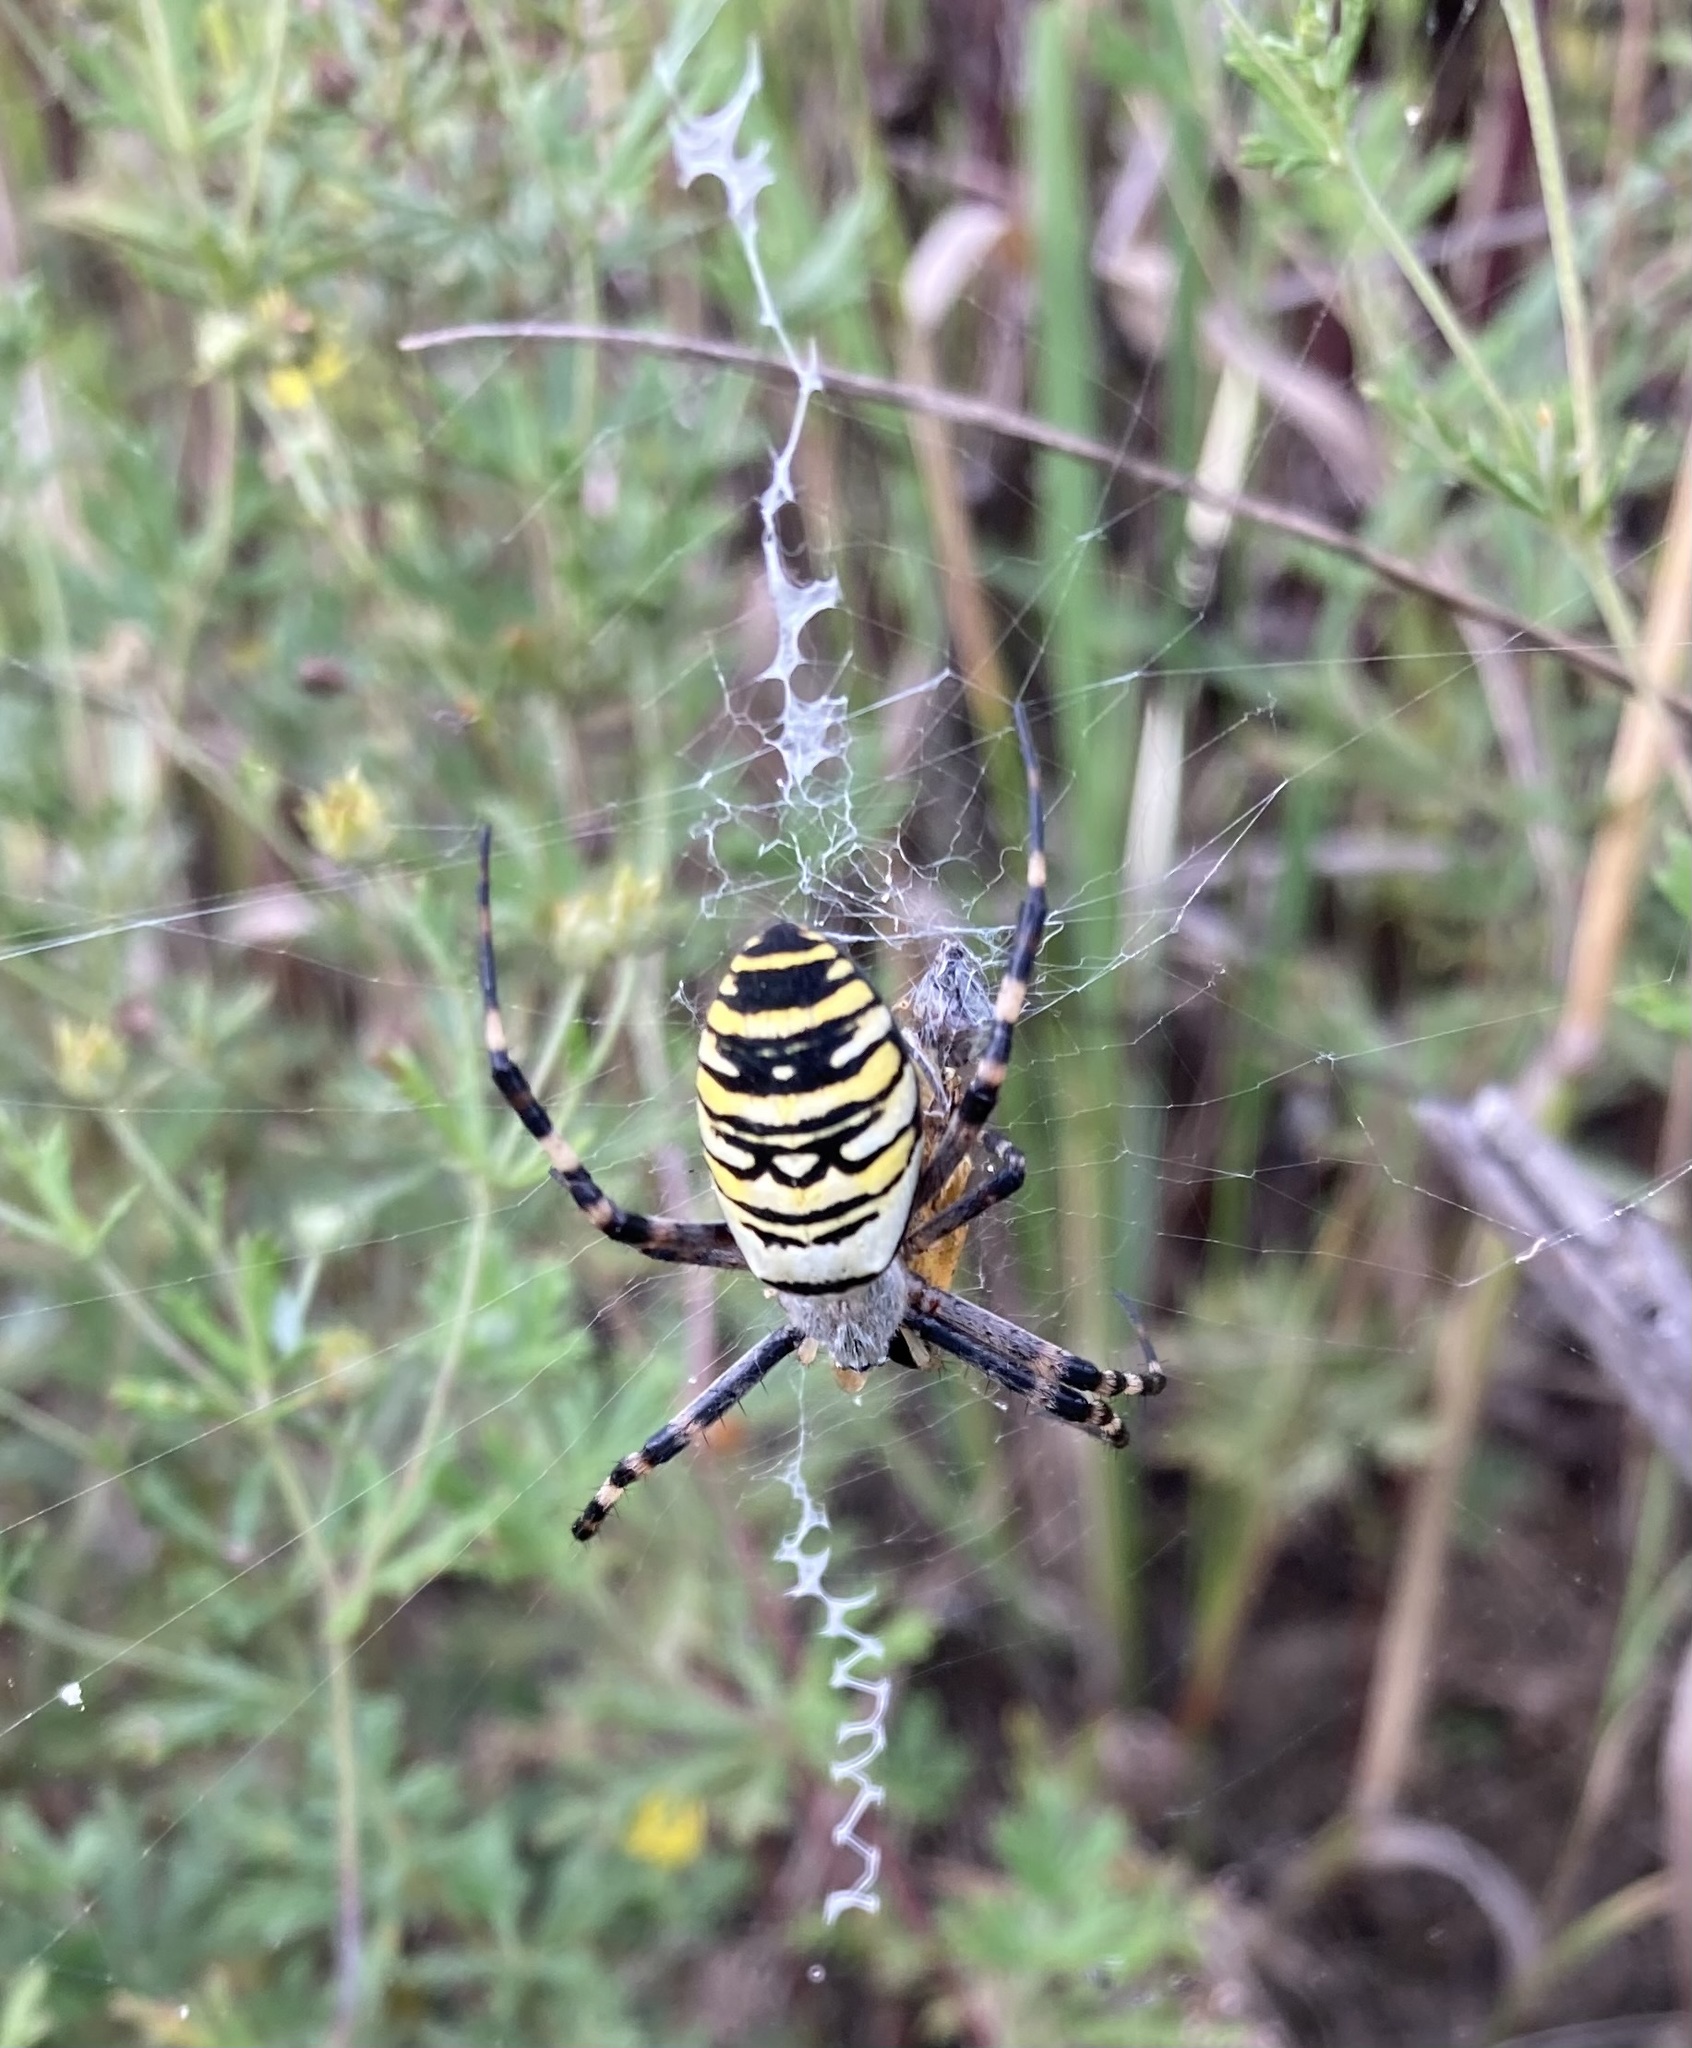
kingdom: Animalia
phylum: Arthropoda
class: Arachnida
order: Araneae
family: Araneidae
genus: Argiope
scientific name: Argiope bruennichi
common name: Wasp spider
